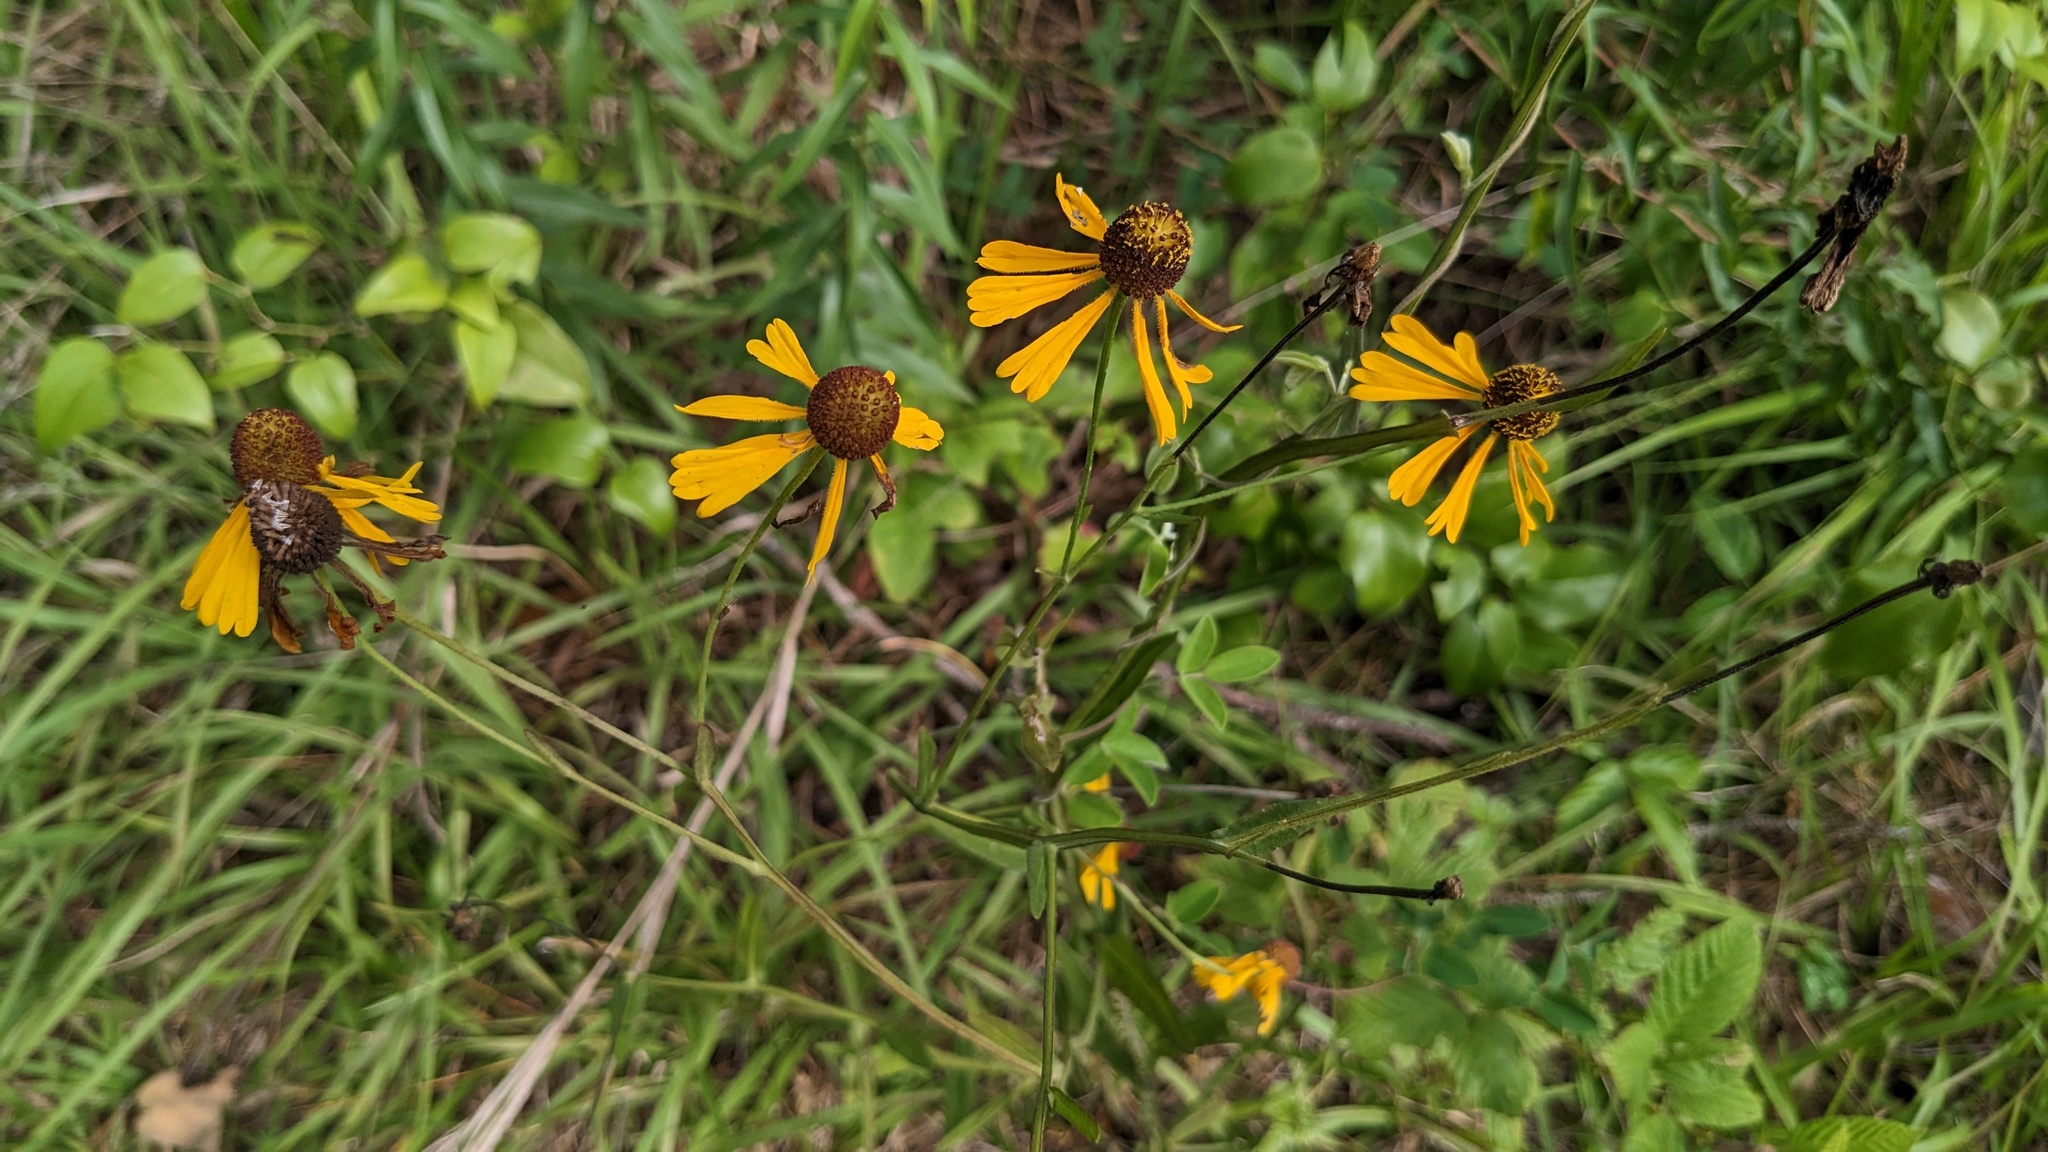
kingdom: Plantae
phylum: Tracheophyta
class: Magnoliopsida
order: Asterales
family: Asteraceae
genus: Helenium
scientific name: Helenium flexuosum
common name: Naked-flowered sneezeweed
